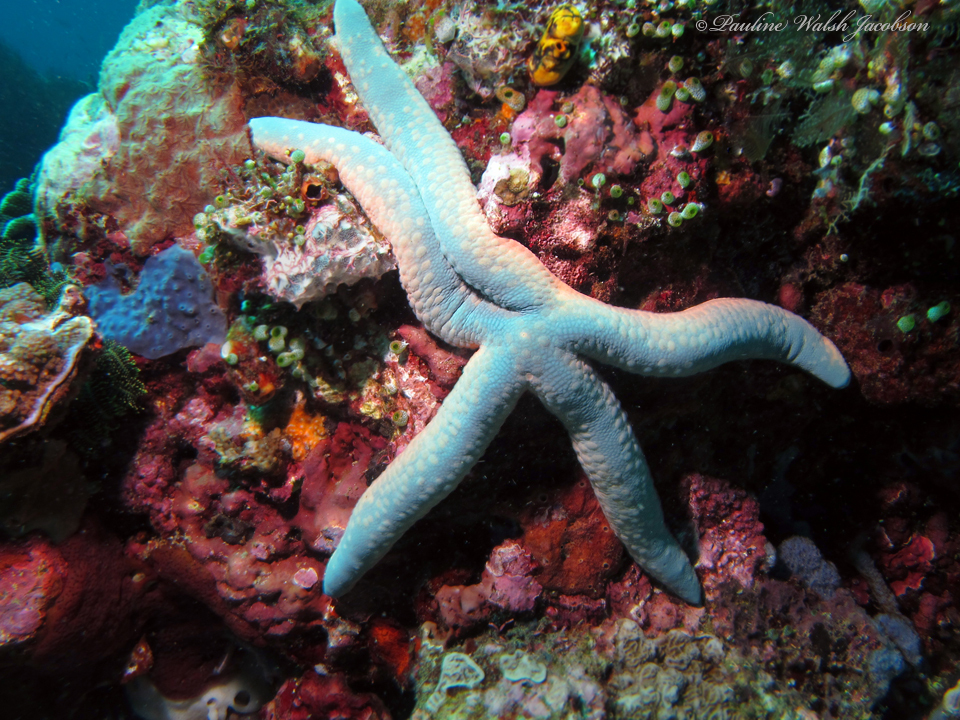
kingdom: Animalia
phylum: Echinodermata
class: Asteroidea
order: Valvatida
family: Ophidiasteridae
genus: Linckia
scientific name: Linckia laevigata
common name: Azure sea star
